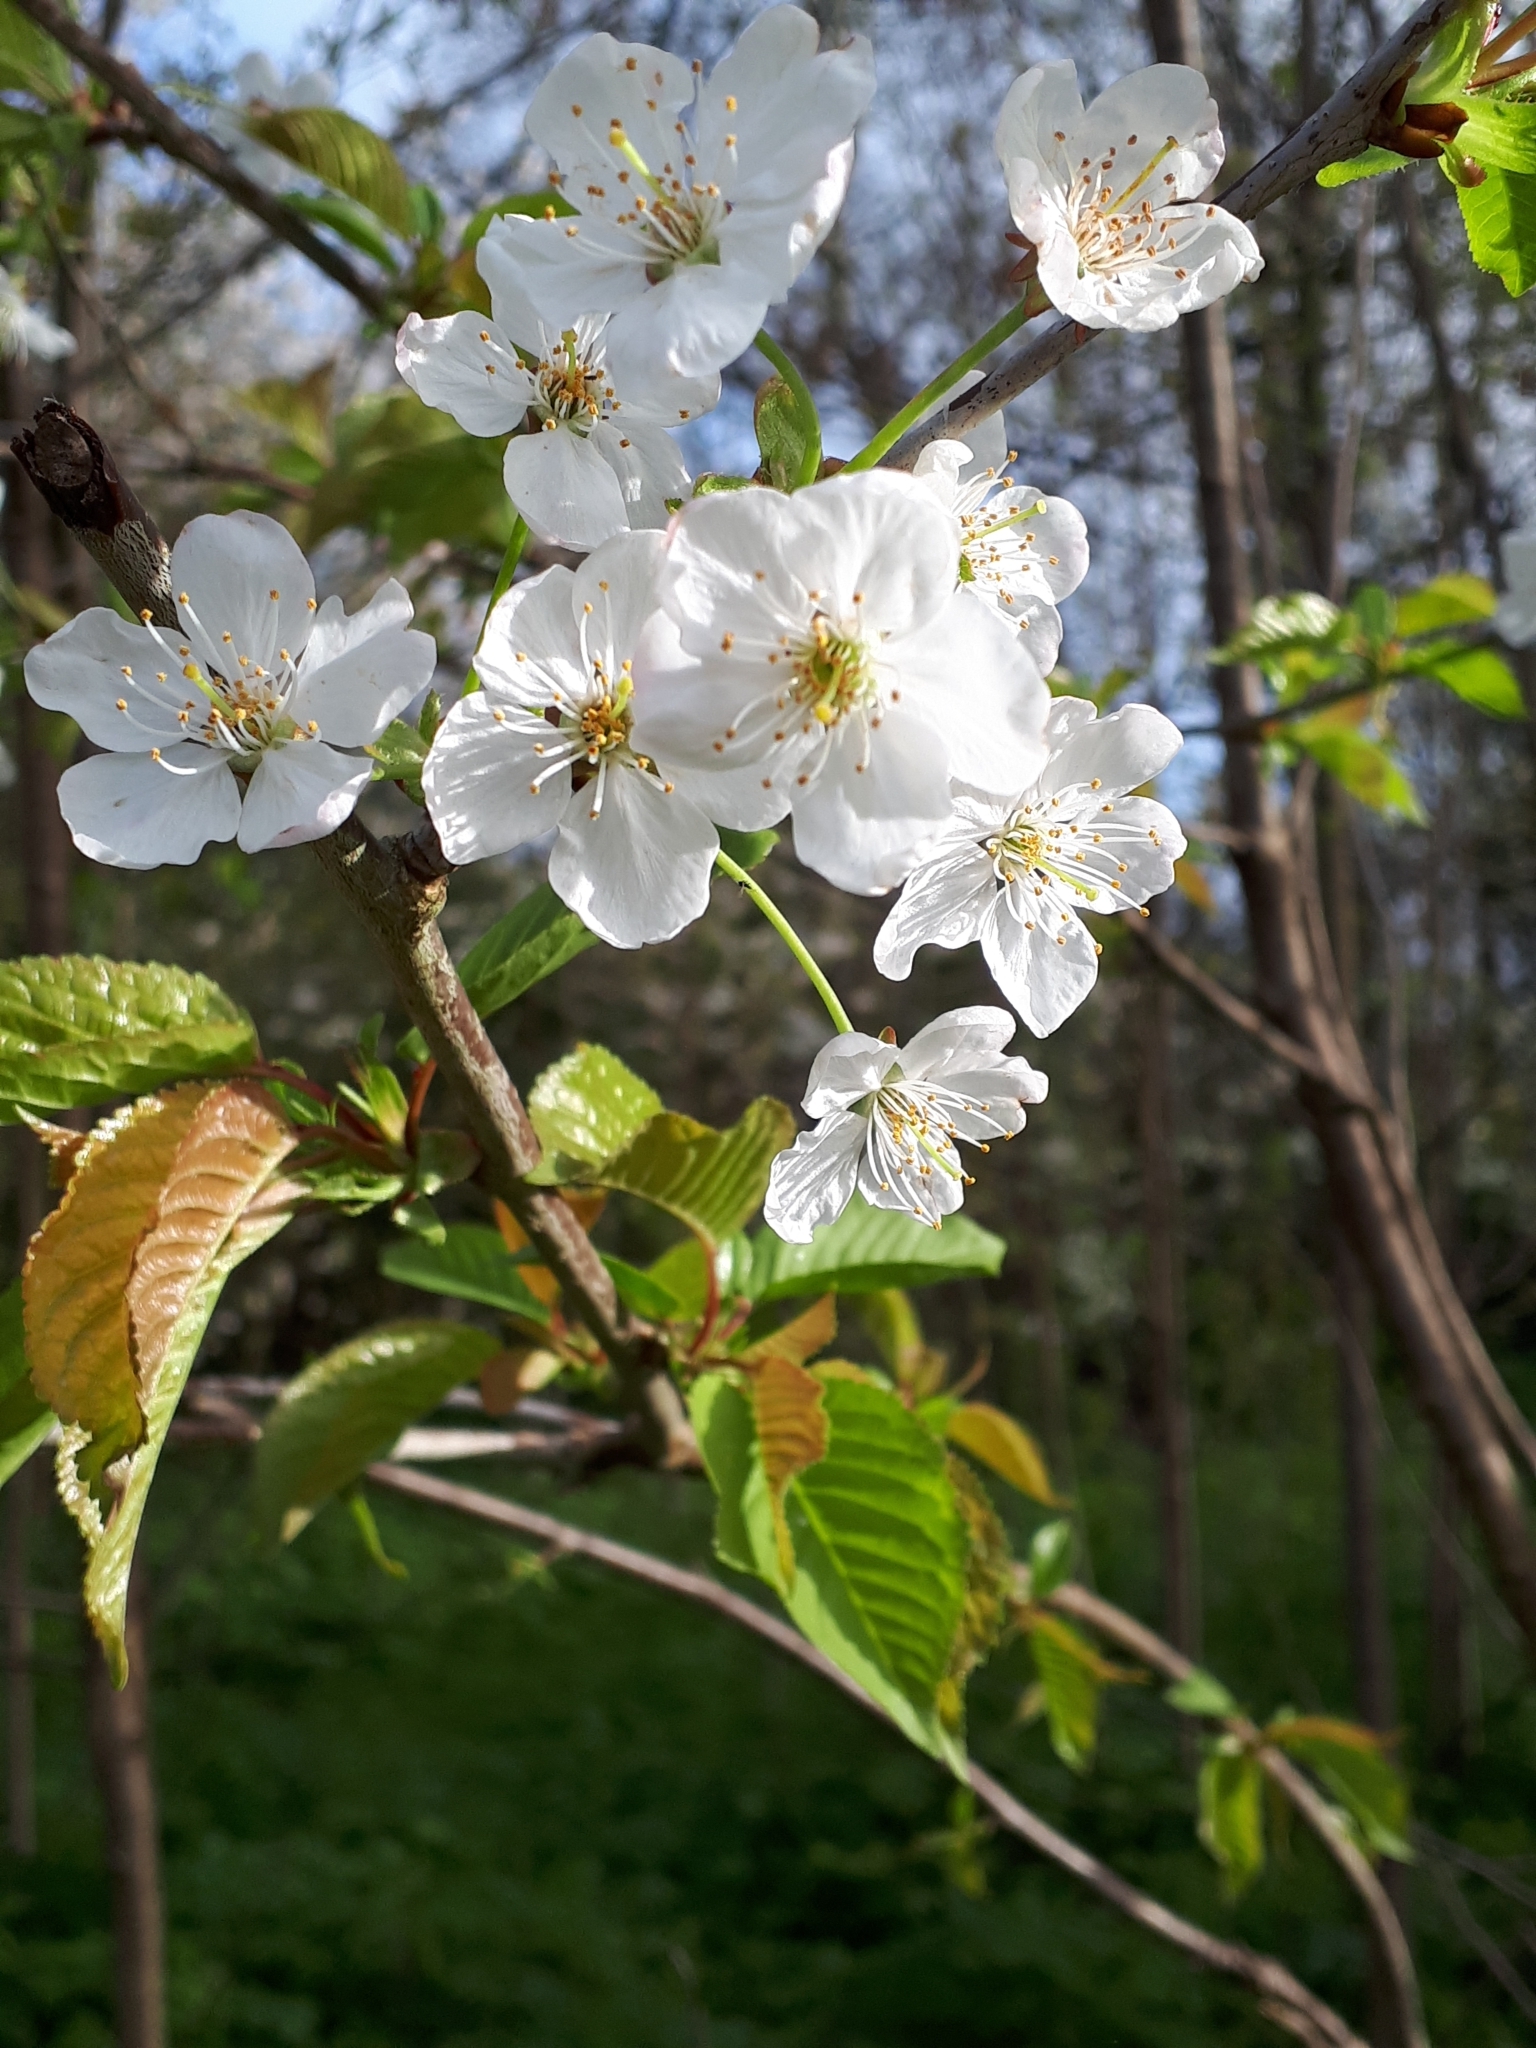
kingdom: Plantae
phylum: Tracheophyta
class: Magnoliopsida
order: Rosales
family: Rosaceae
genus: Prunus
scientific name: Prunus avium
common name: Sweet cherry
